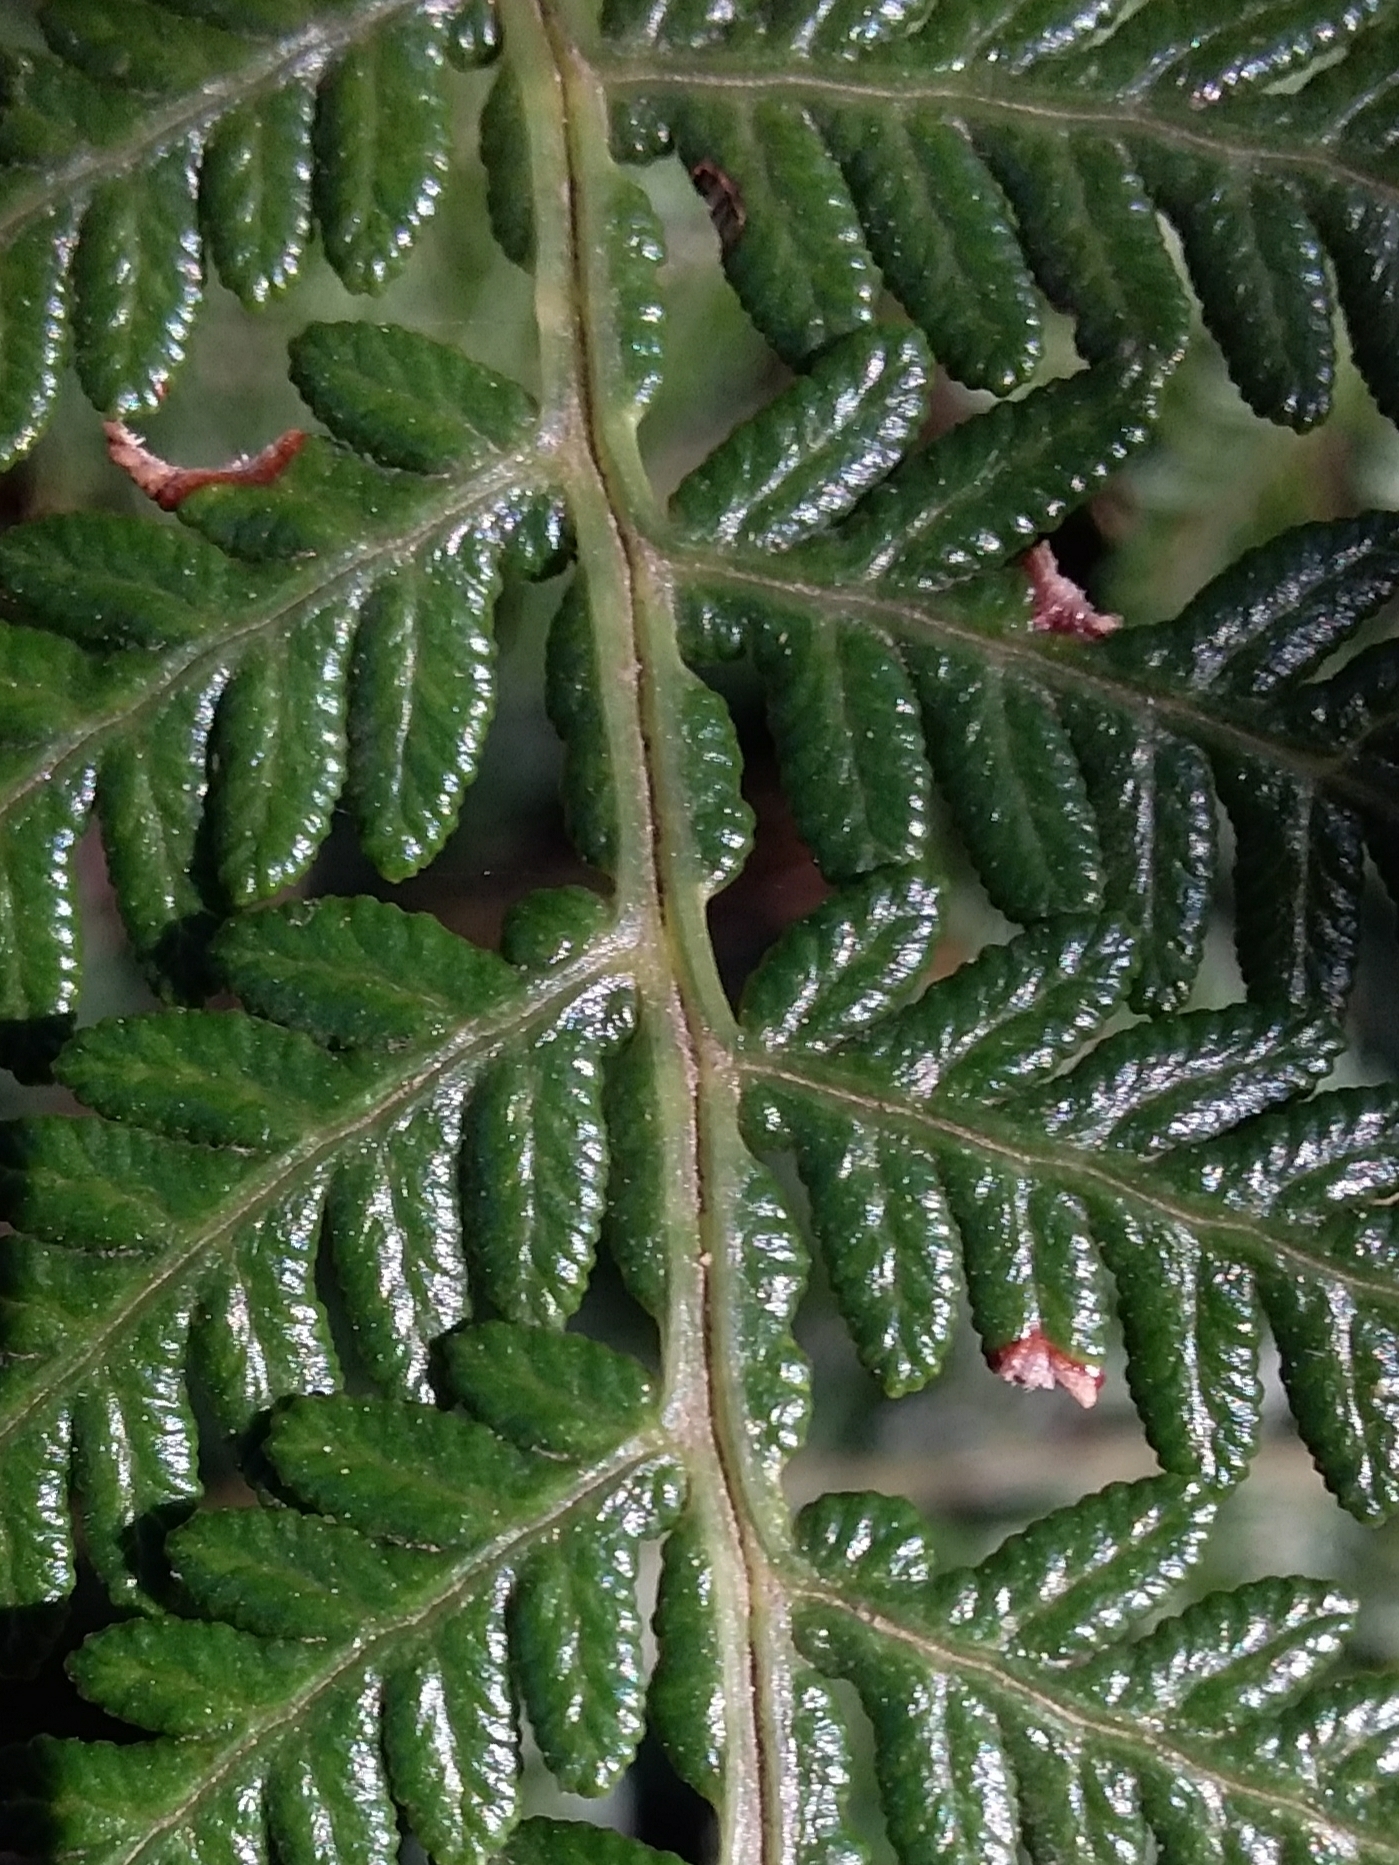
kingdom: Plantae
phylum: Tracheophyta
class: Polypodiopsida
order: Polypodiales
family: Dennstaedtiaceae
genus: Pteridium
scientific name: Pteridium esculentum
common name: Bracken fern
